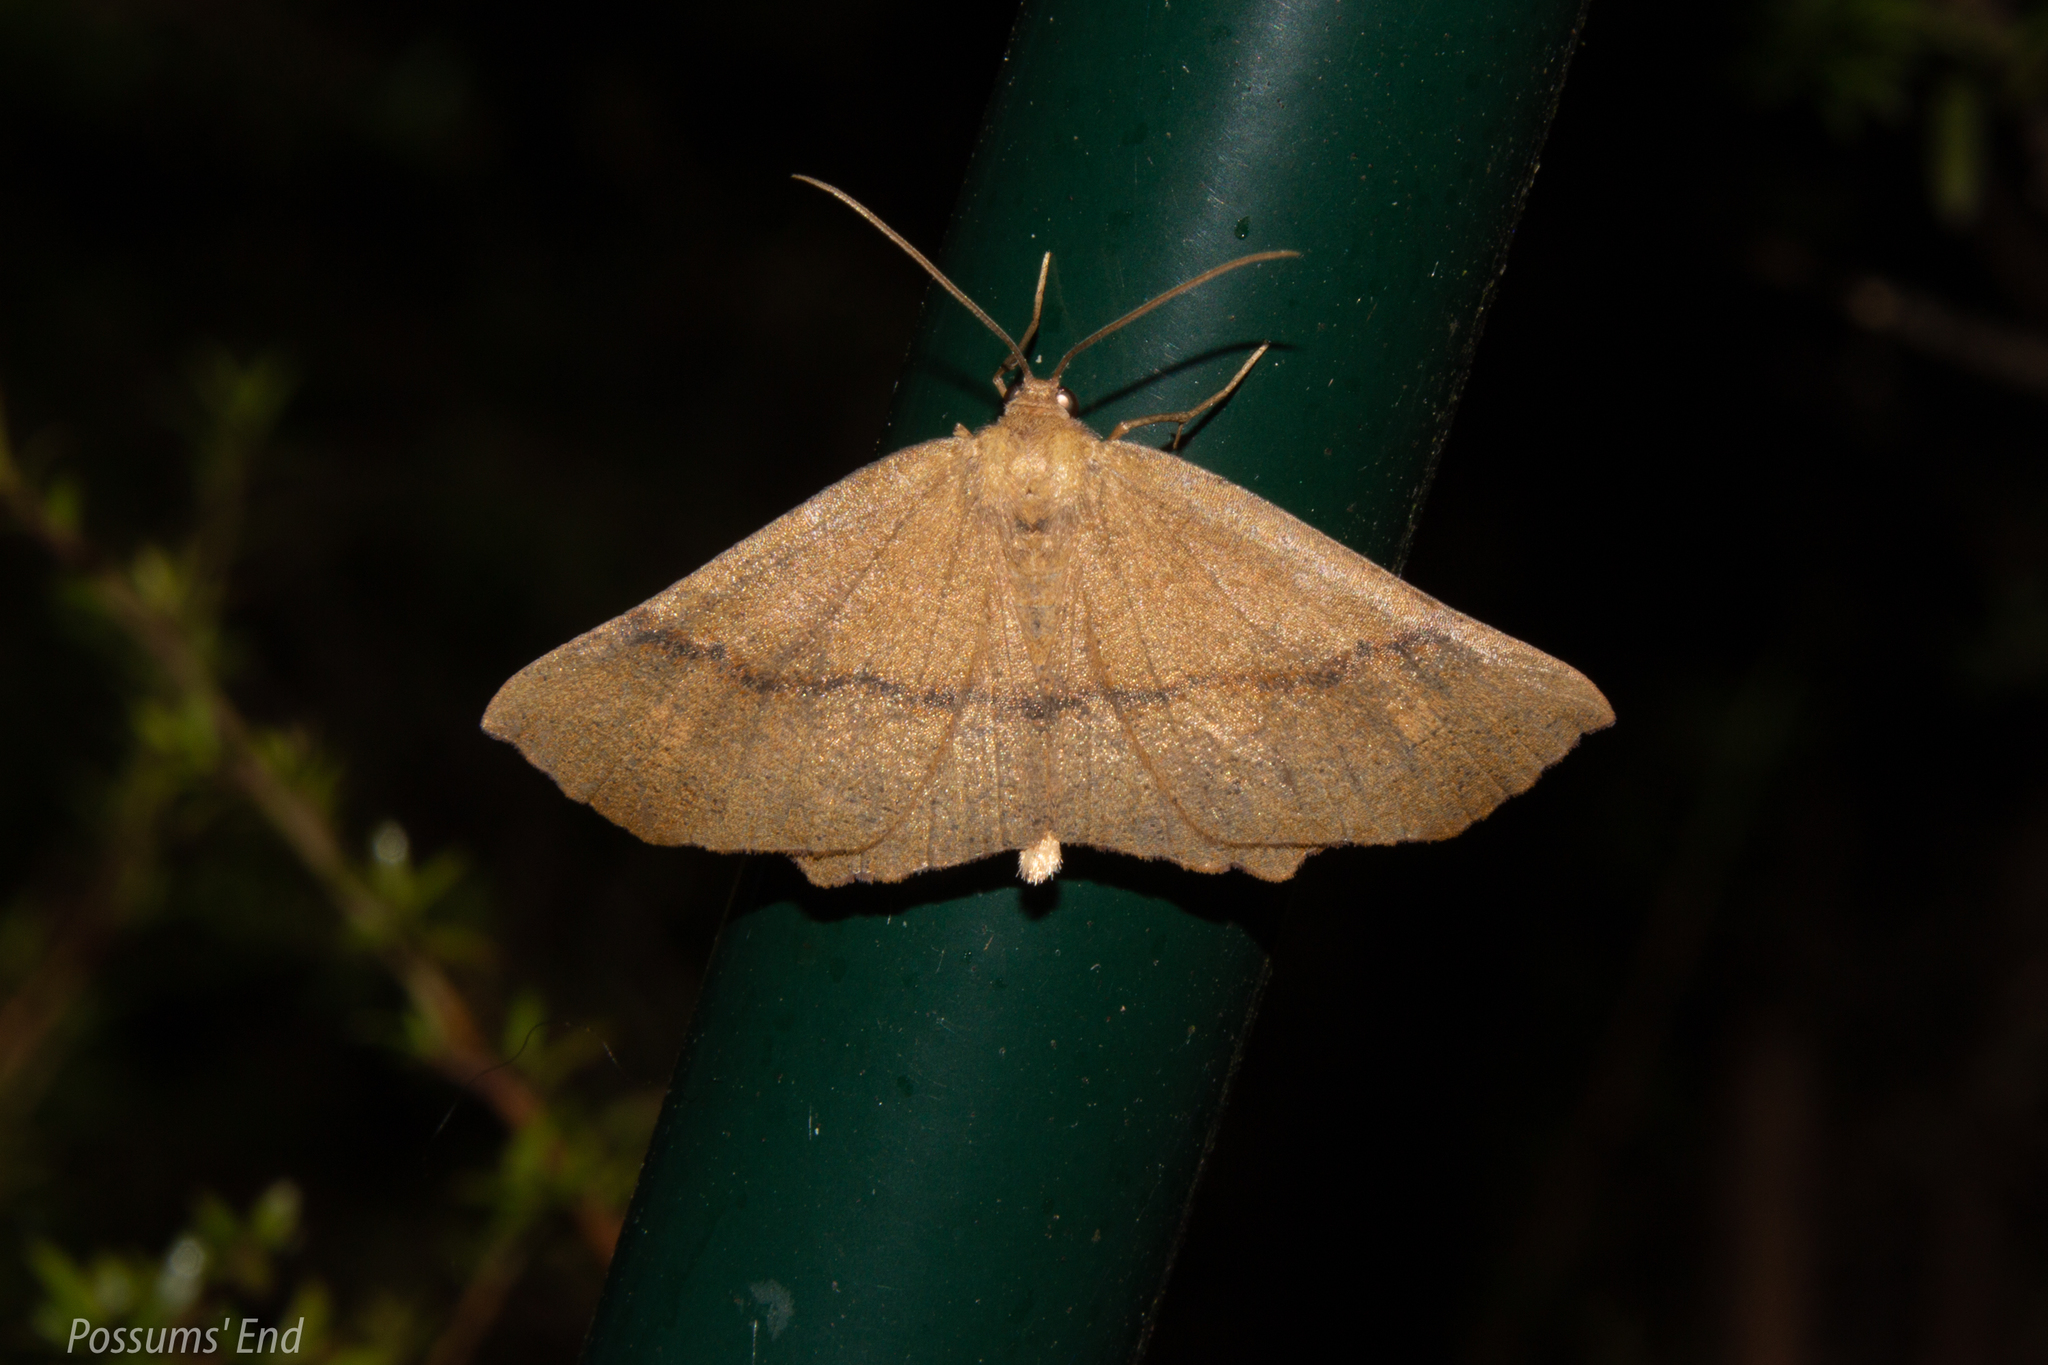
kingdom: Animalia
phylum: Arthropoda
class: Insecta
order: Lepidoptera
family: Geometridae
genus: Xyridacma
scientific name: Xyridacma ustaria
